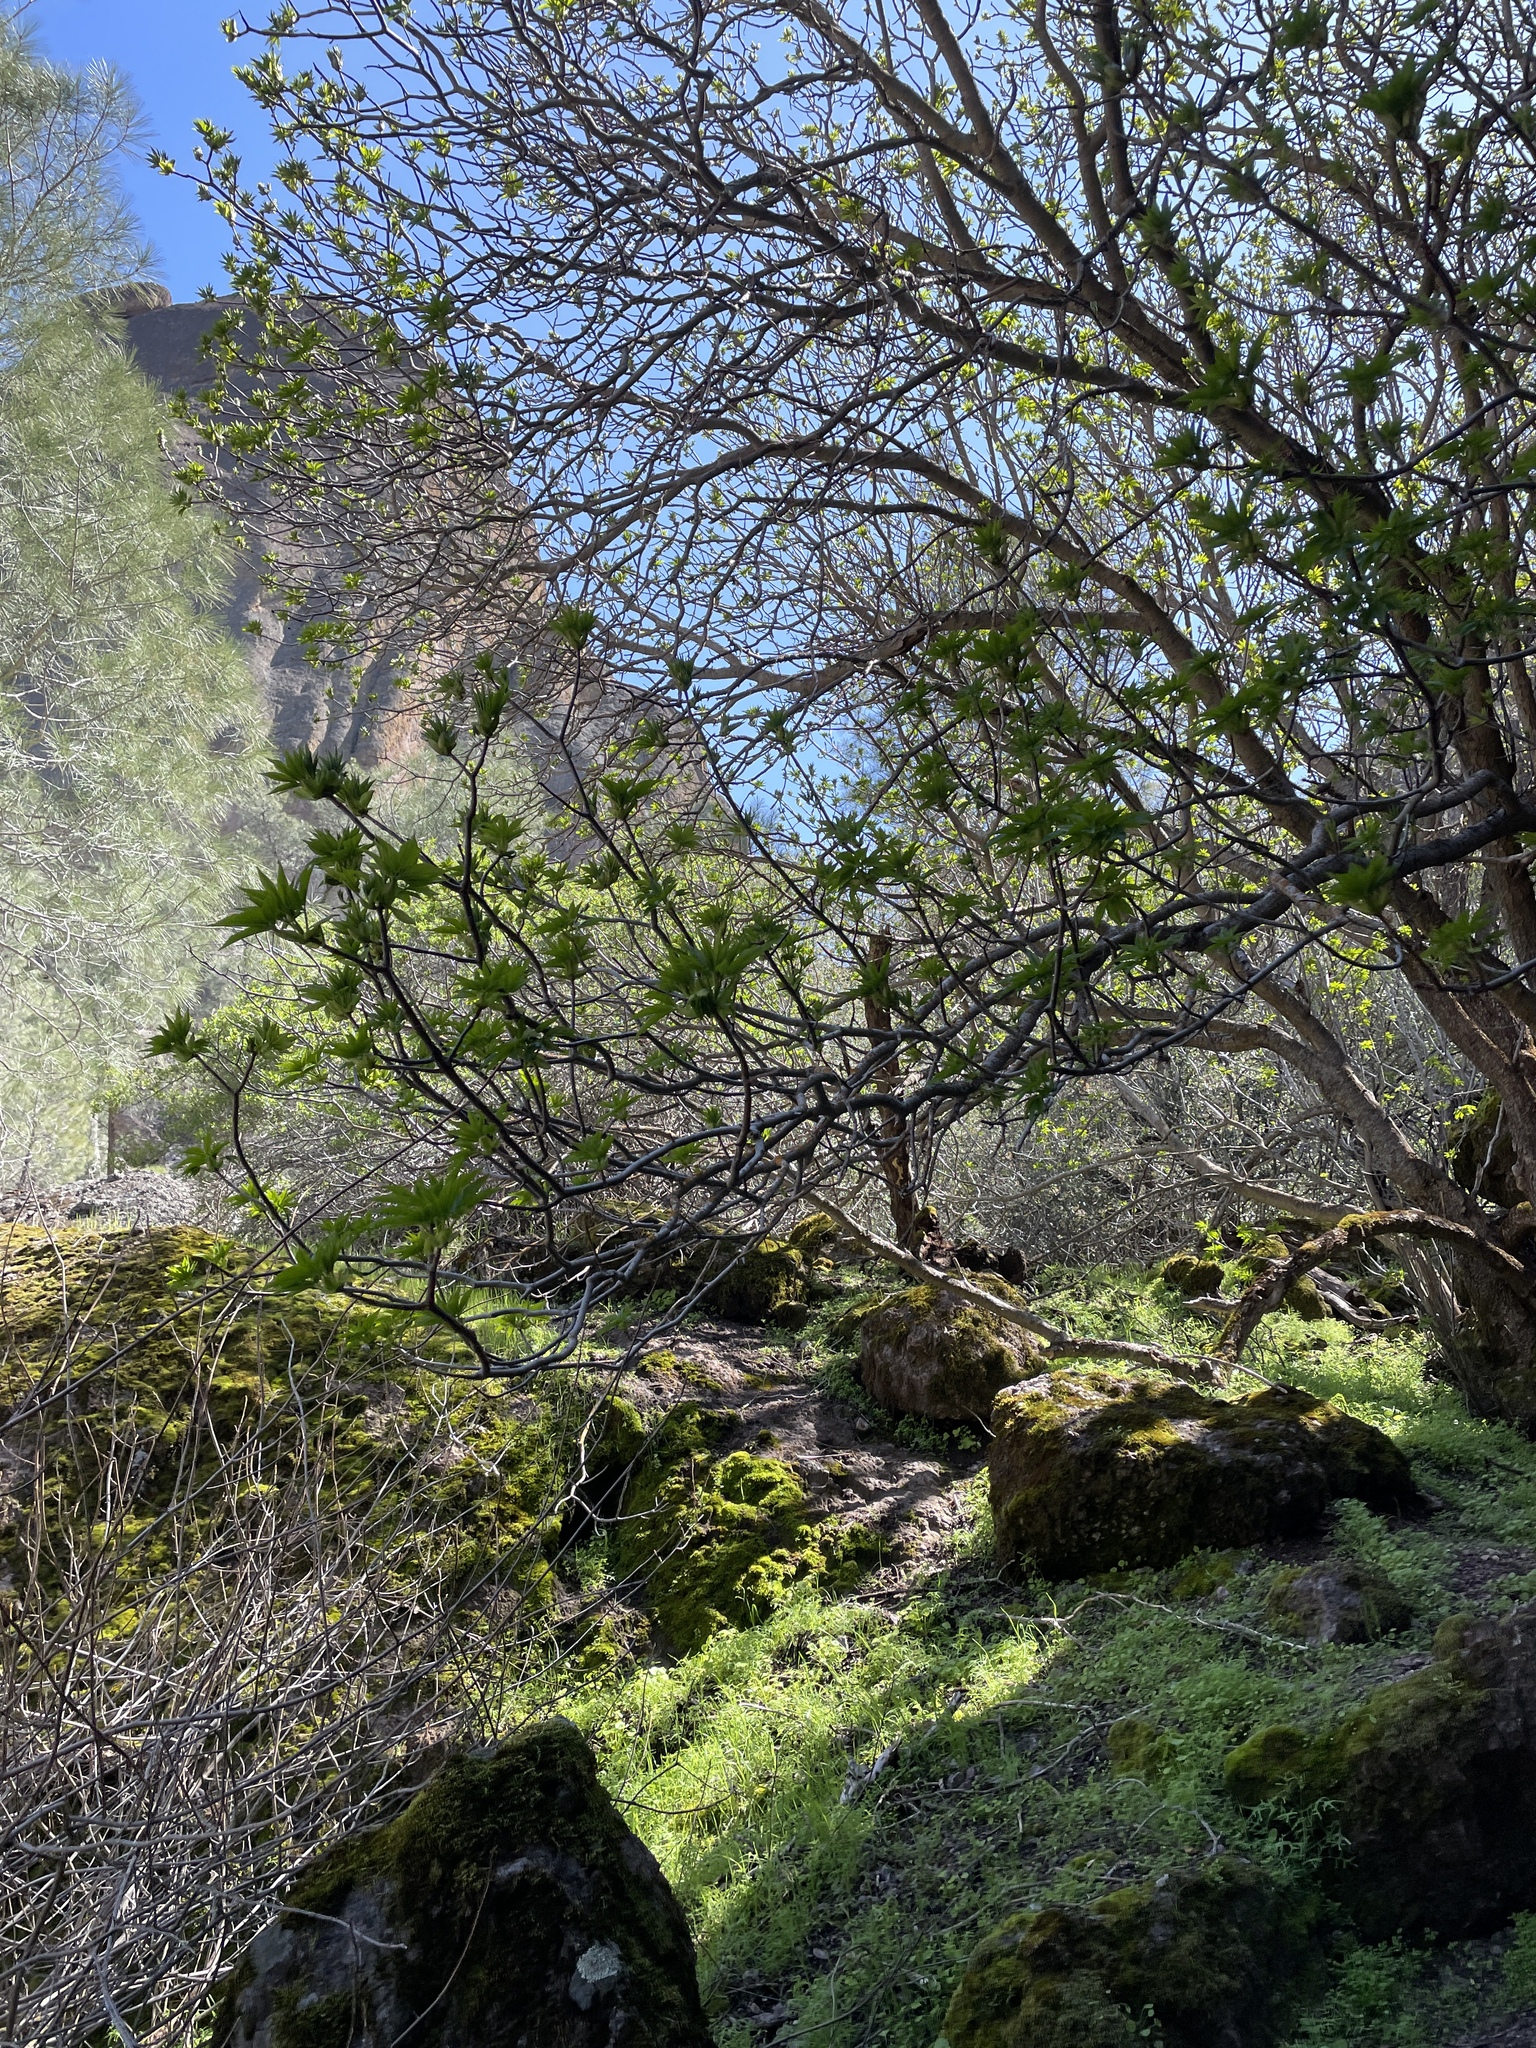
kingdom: Plantae
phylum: Tracheophyta
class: Magnoliopsida
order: Sapindales
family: Sapindaceae
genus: Aesculus
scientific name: Aesculus californica
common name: California buckeye
